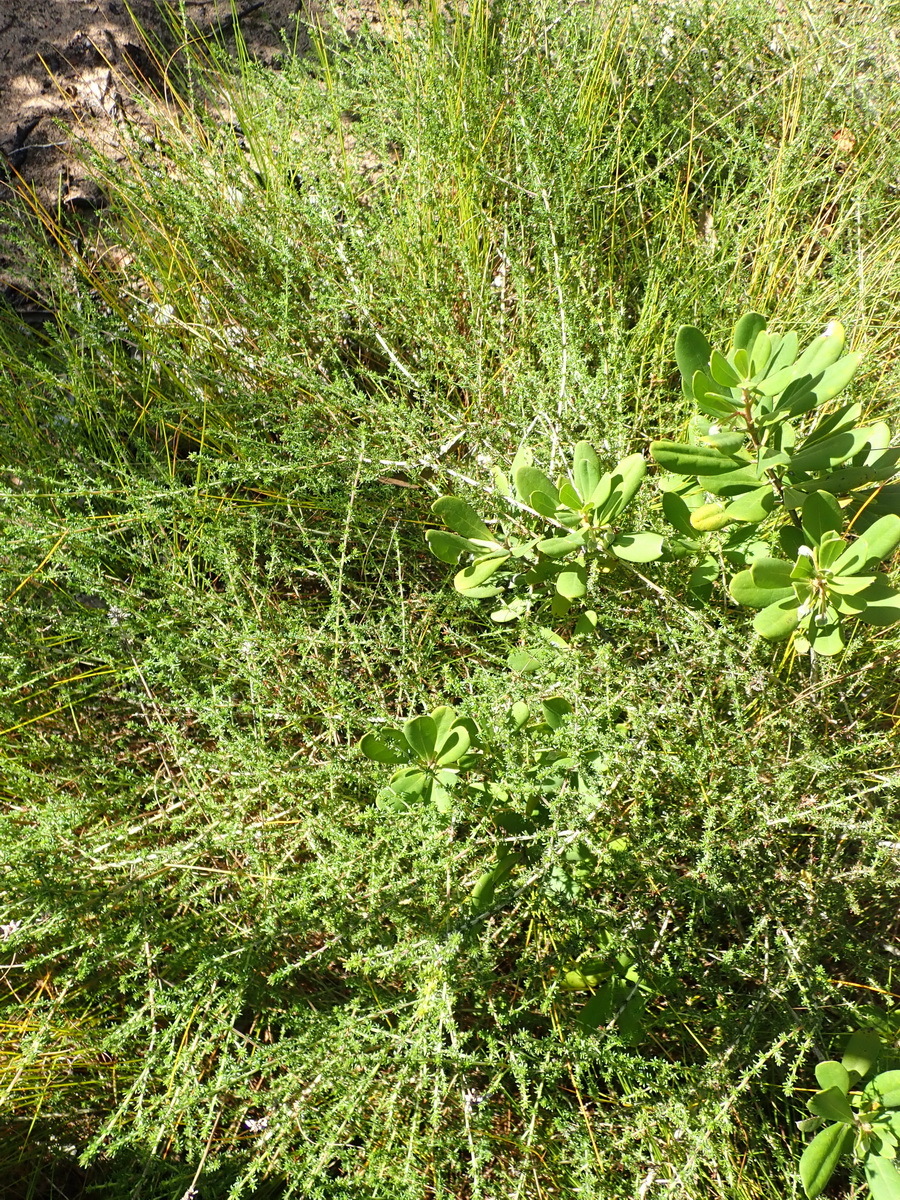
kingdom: Plantae
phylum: Tracheophyta
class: Magnoliopsida
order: Fabales
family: Fabaceae
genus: Aspalathus
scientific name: Aspalathus hispida
